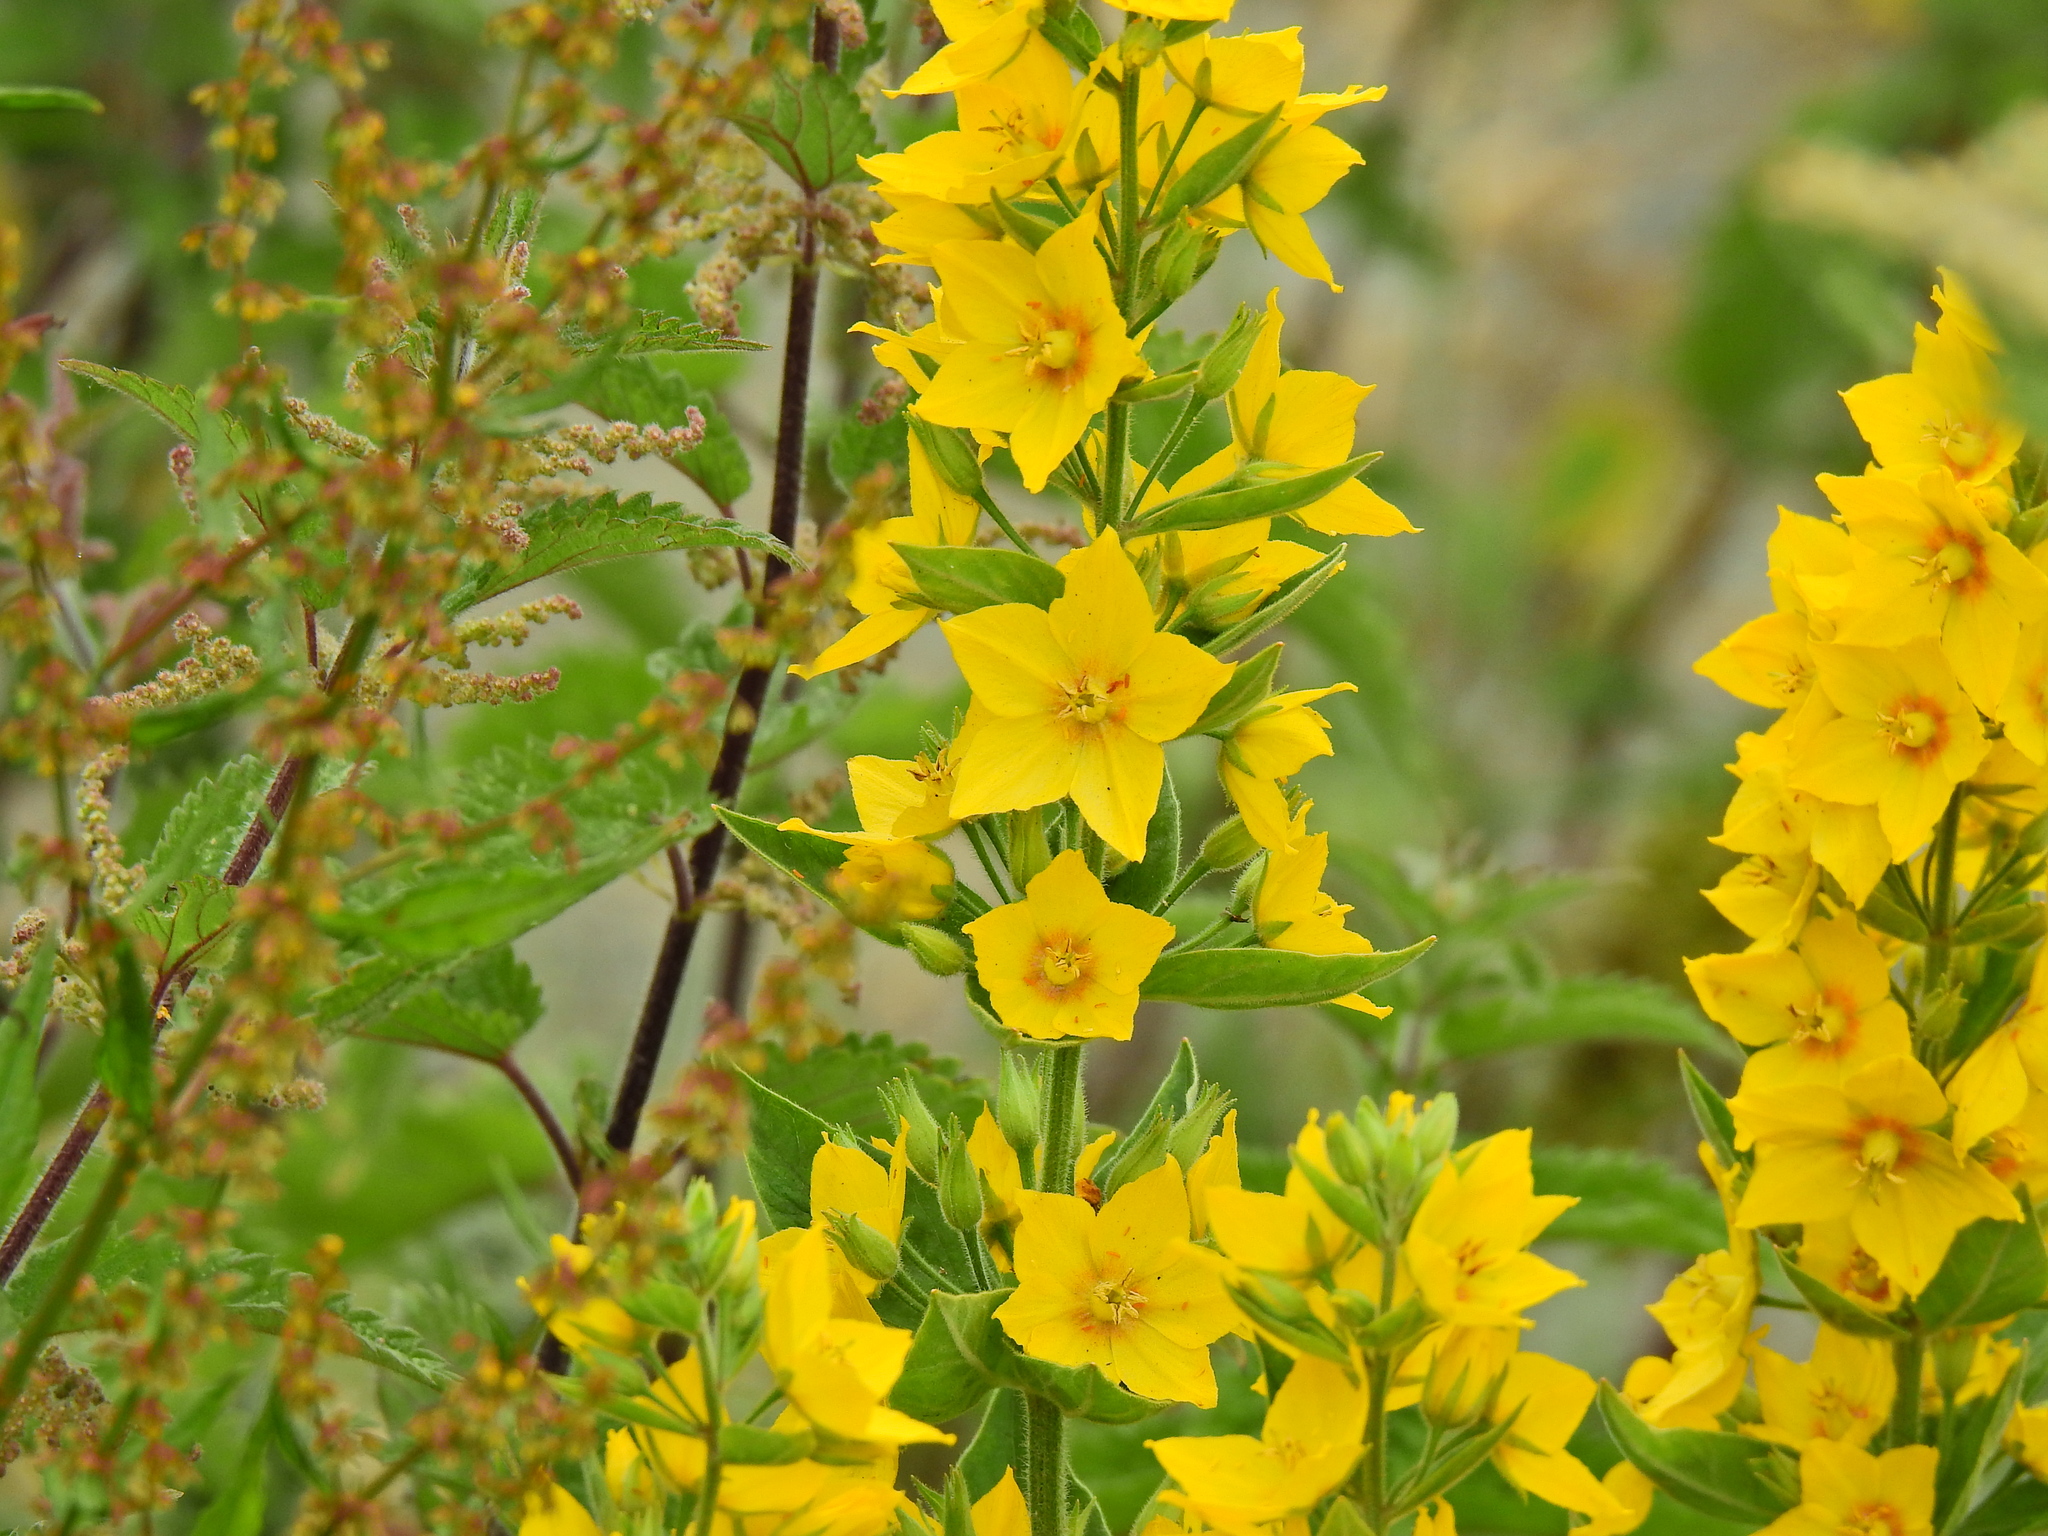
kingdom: Plantae
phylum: Tracheophyta
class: Magnoliopsida
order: Ericales
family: Primulaceae
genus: Lysimachia
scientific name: Lysimachia punctata
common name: Dotted loosestrife
